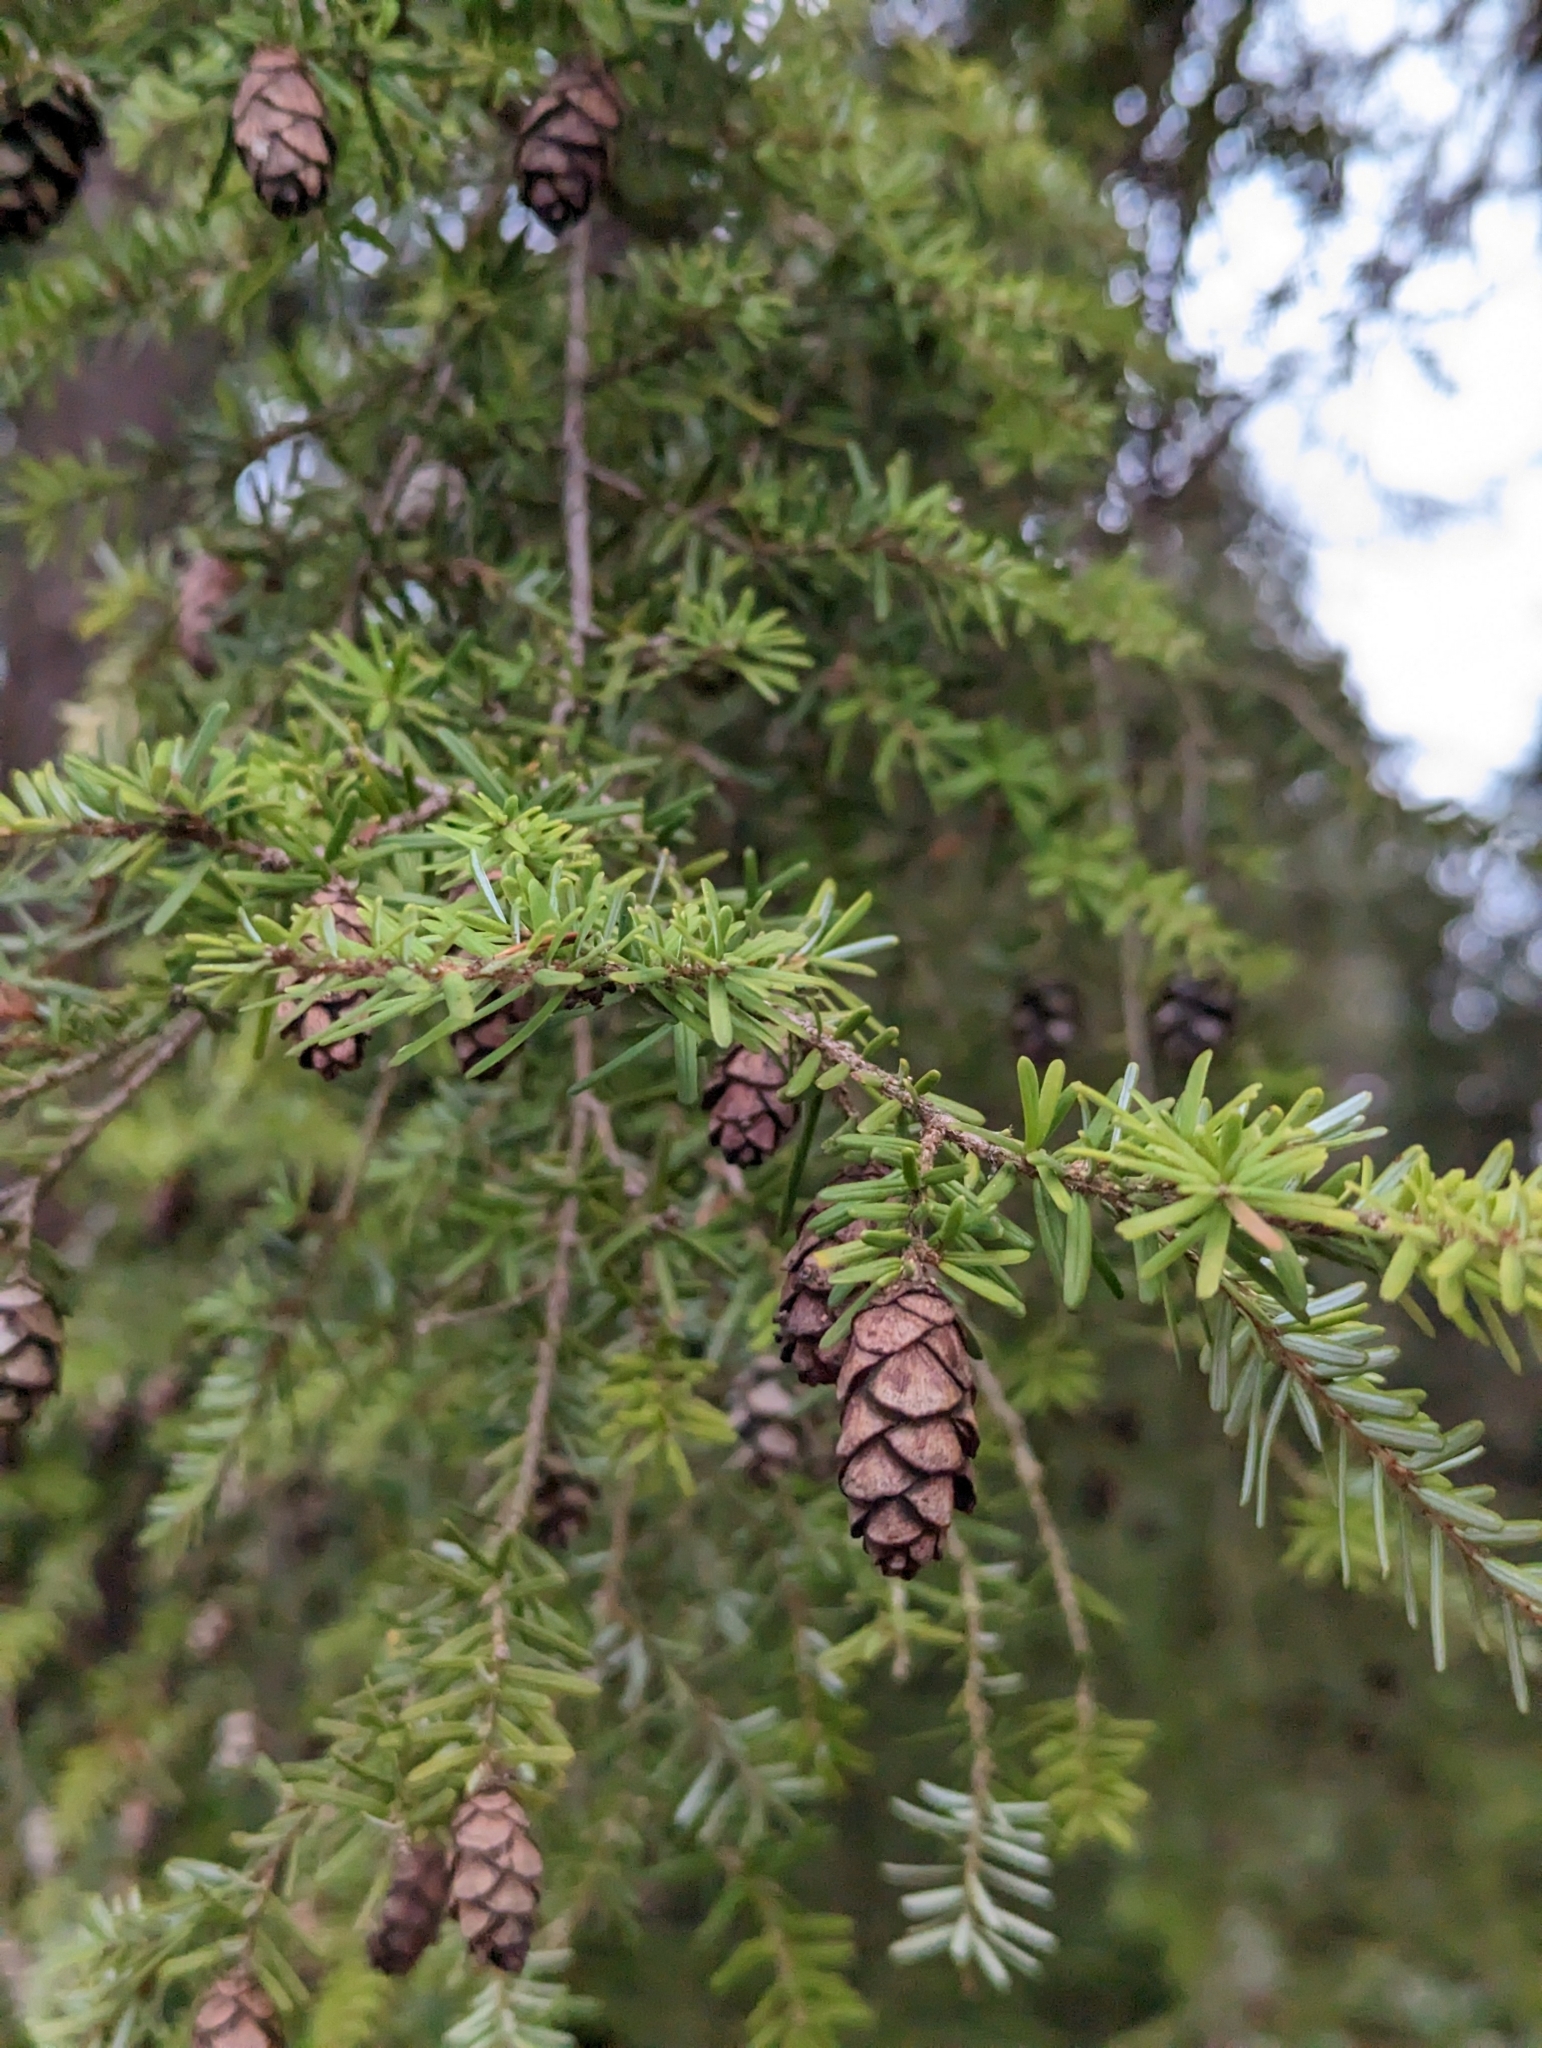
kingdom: Plantae
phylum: Tracheophyta
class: Pinopsida
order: Pinales
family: Pinaceae
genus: Tsuga
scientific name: Tsuga heterophylla
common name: Western hemlock
